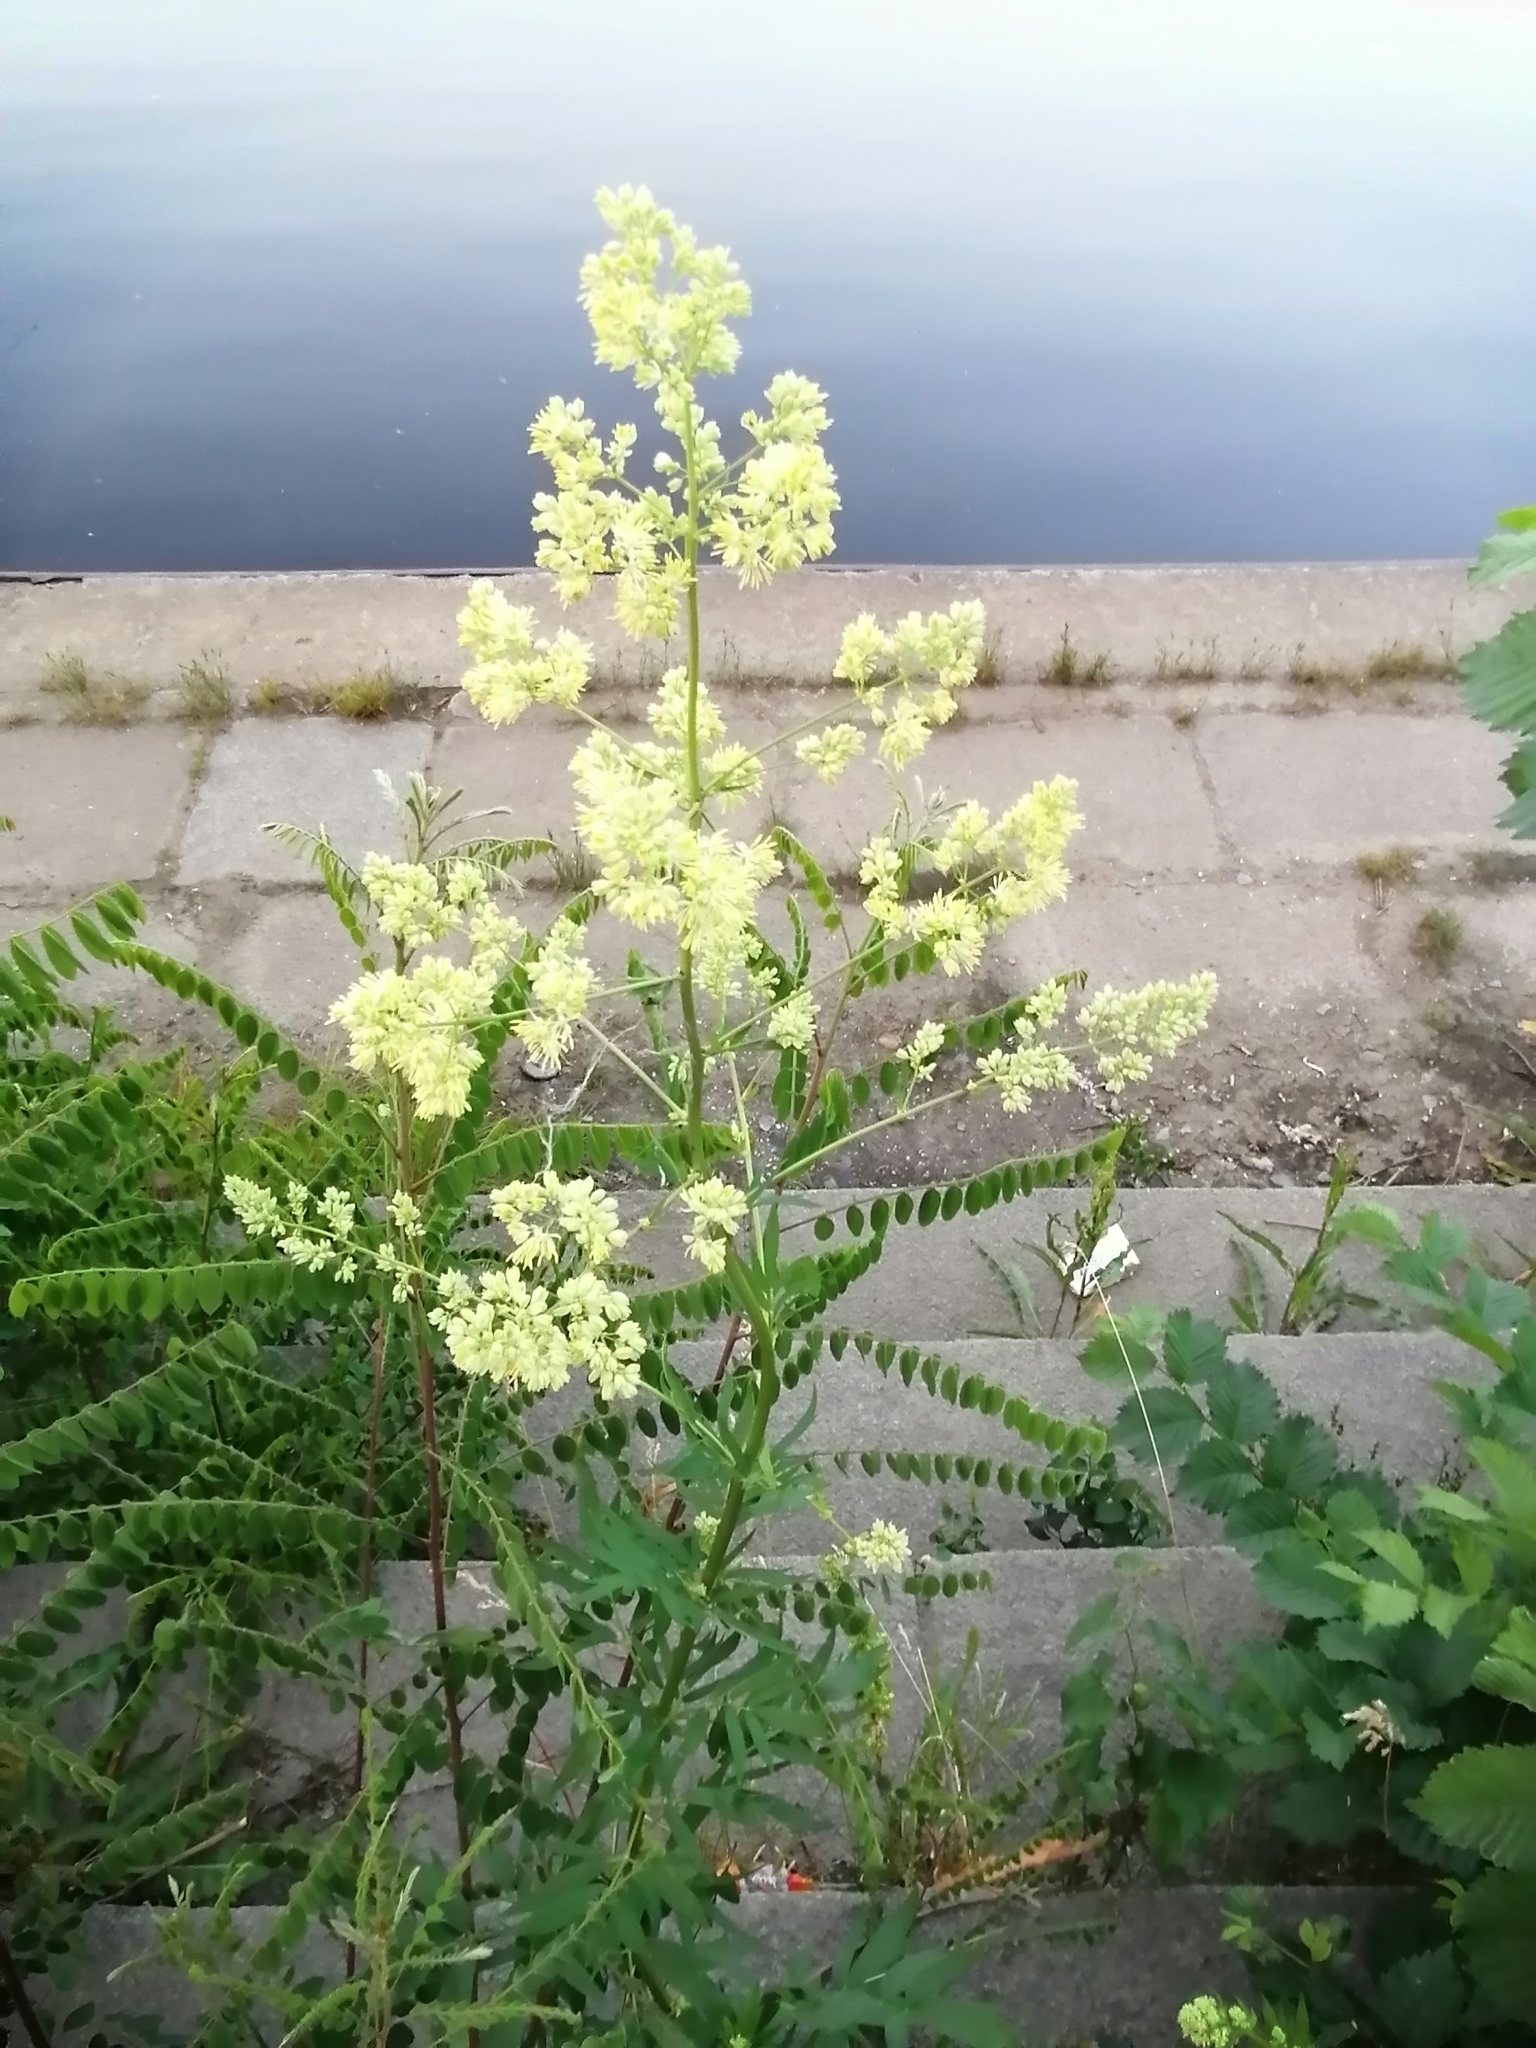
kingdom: Plantae
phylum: Tracheophyta
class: Magnoliopsida
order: Ranunculales
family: Ranunculaceae
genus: Thalictrum
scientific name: Thalictrum lucidum
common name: Shining meadow-rue
